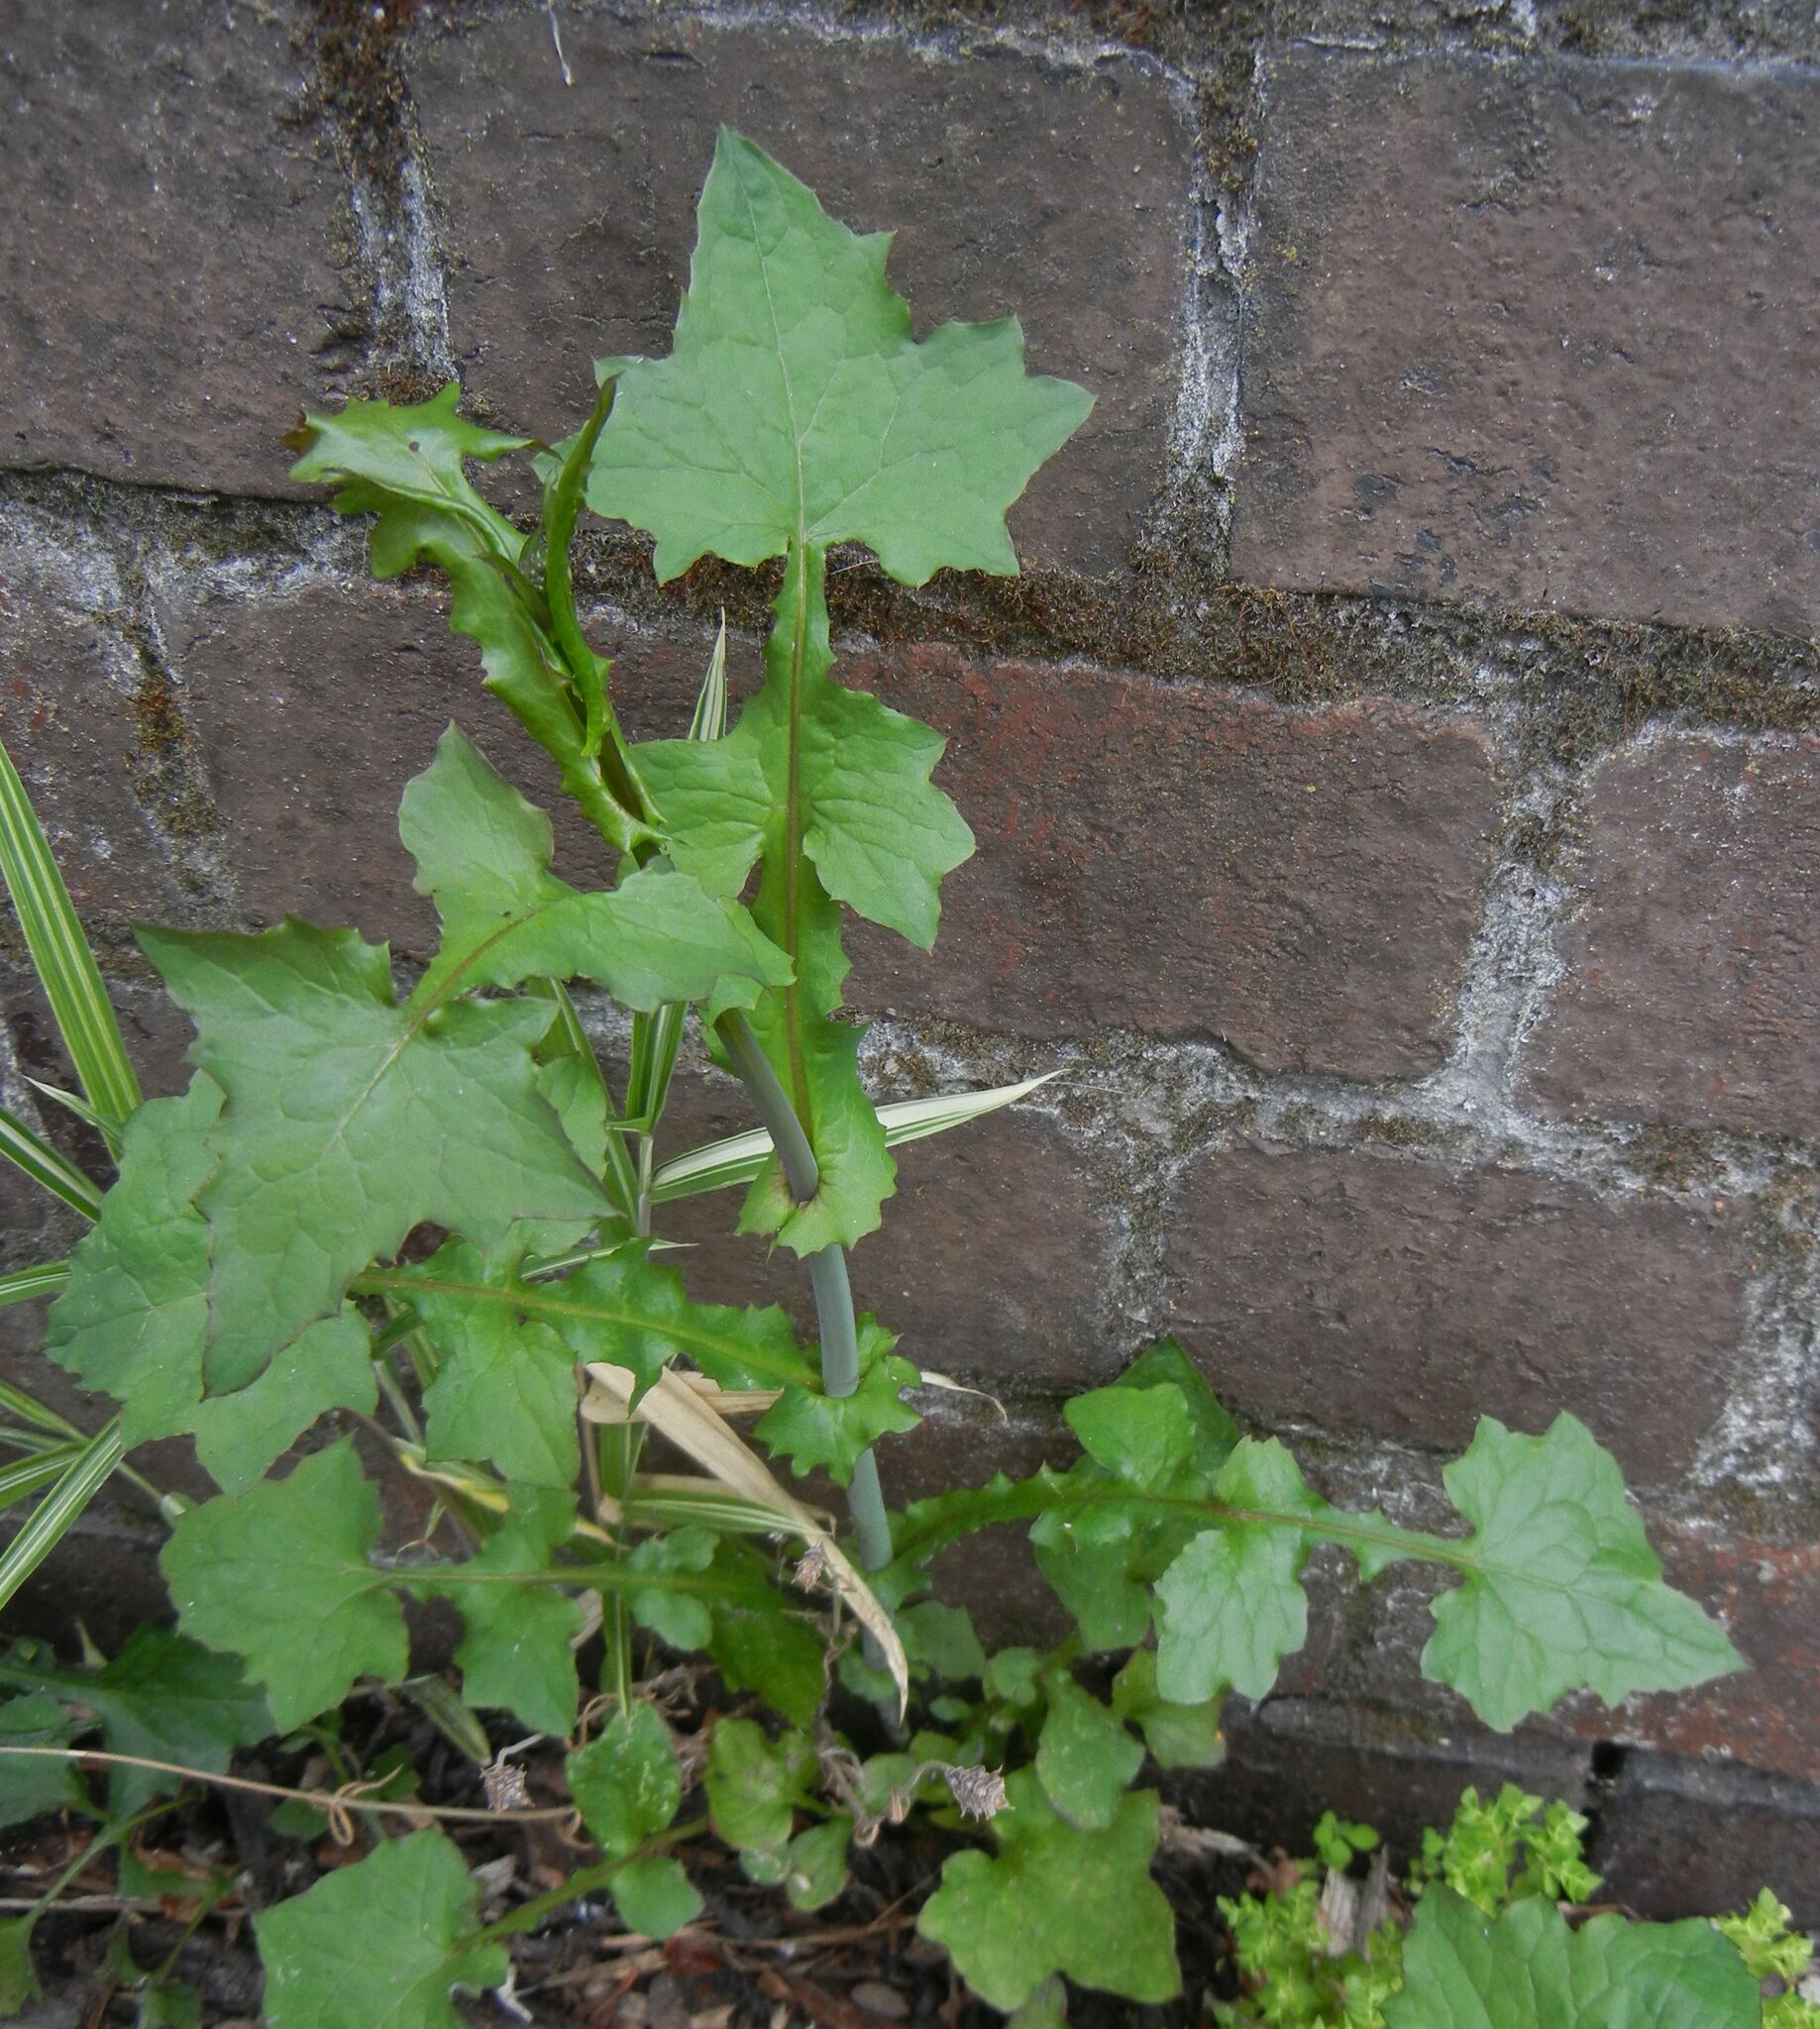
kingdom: Plantae
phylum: Tracheophyta
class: Magnoliopsida
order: Asterales
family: Asteraceae
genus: Mycelis
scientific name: Mycelis muralis
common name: Wall lettuce
